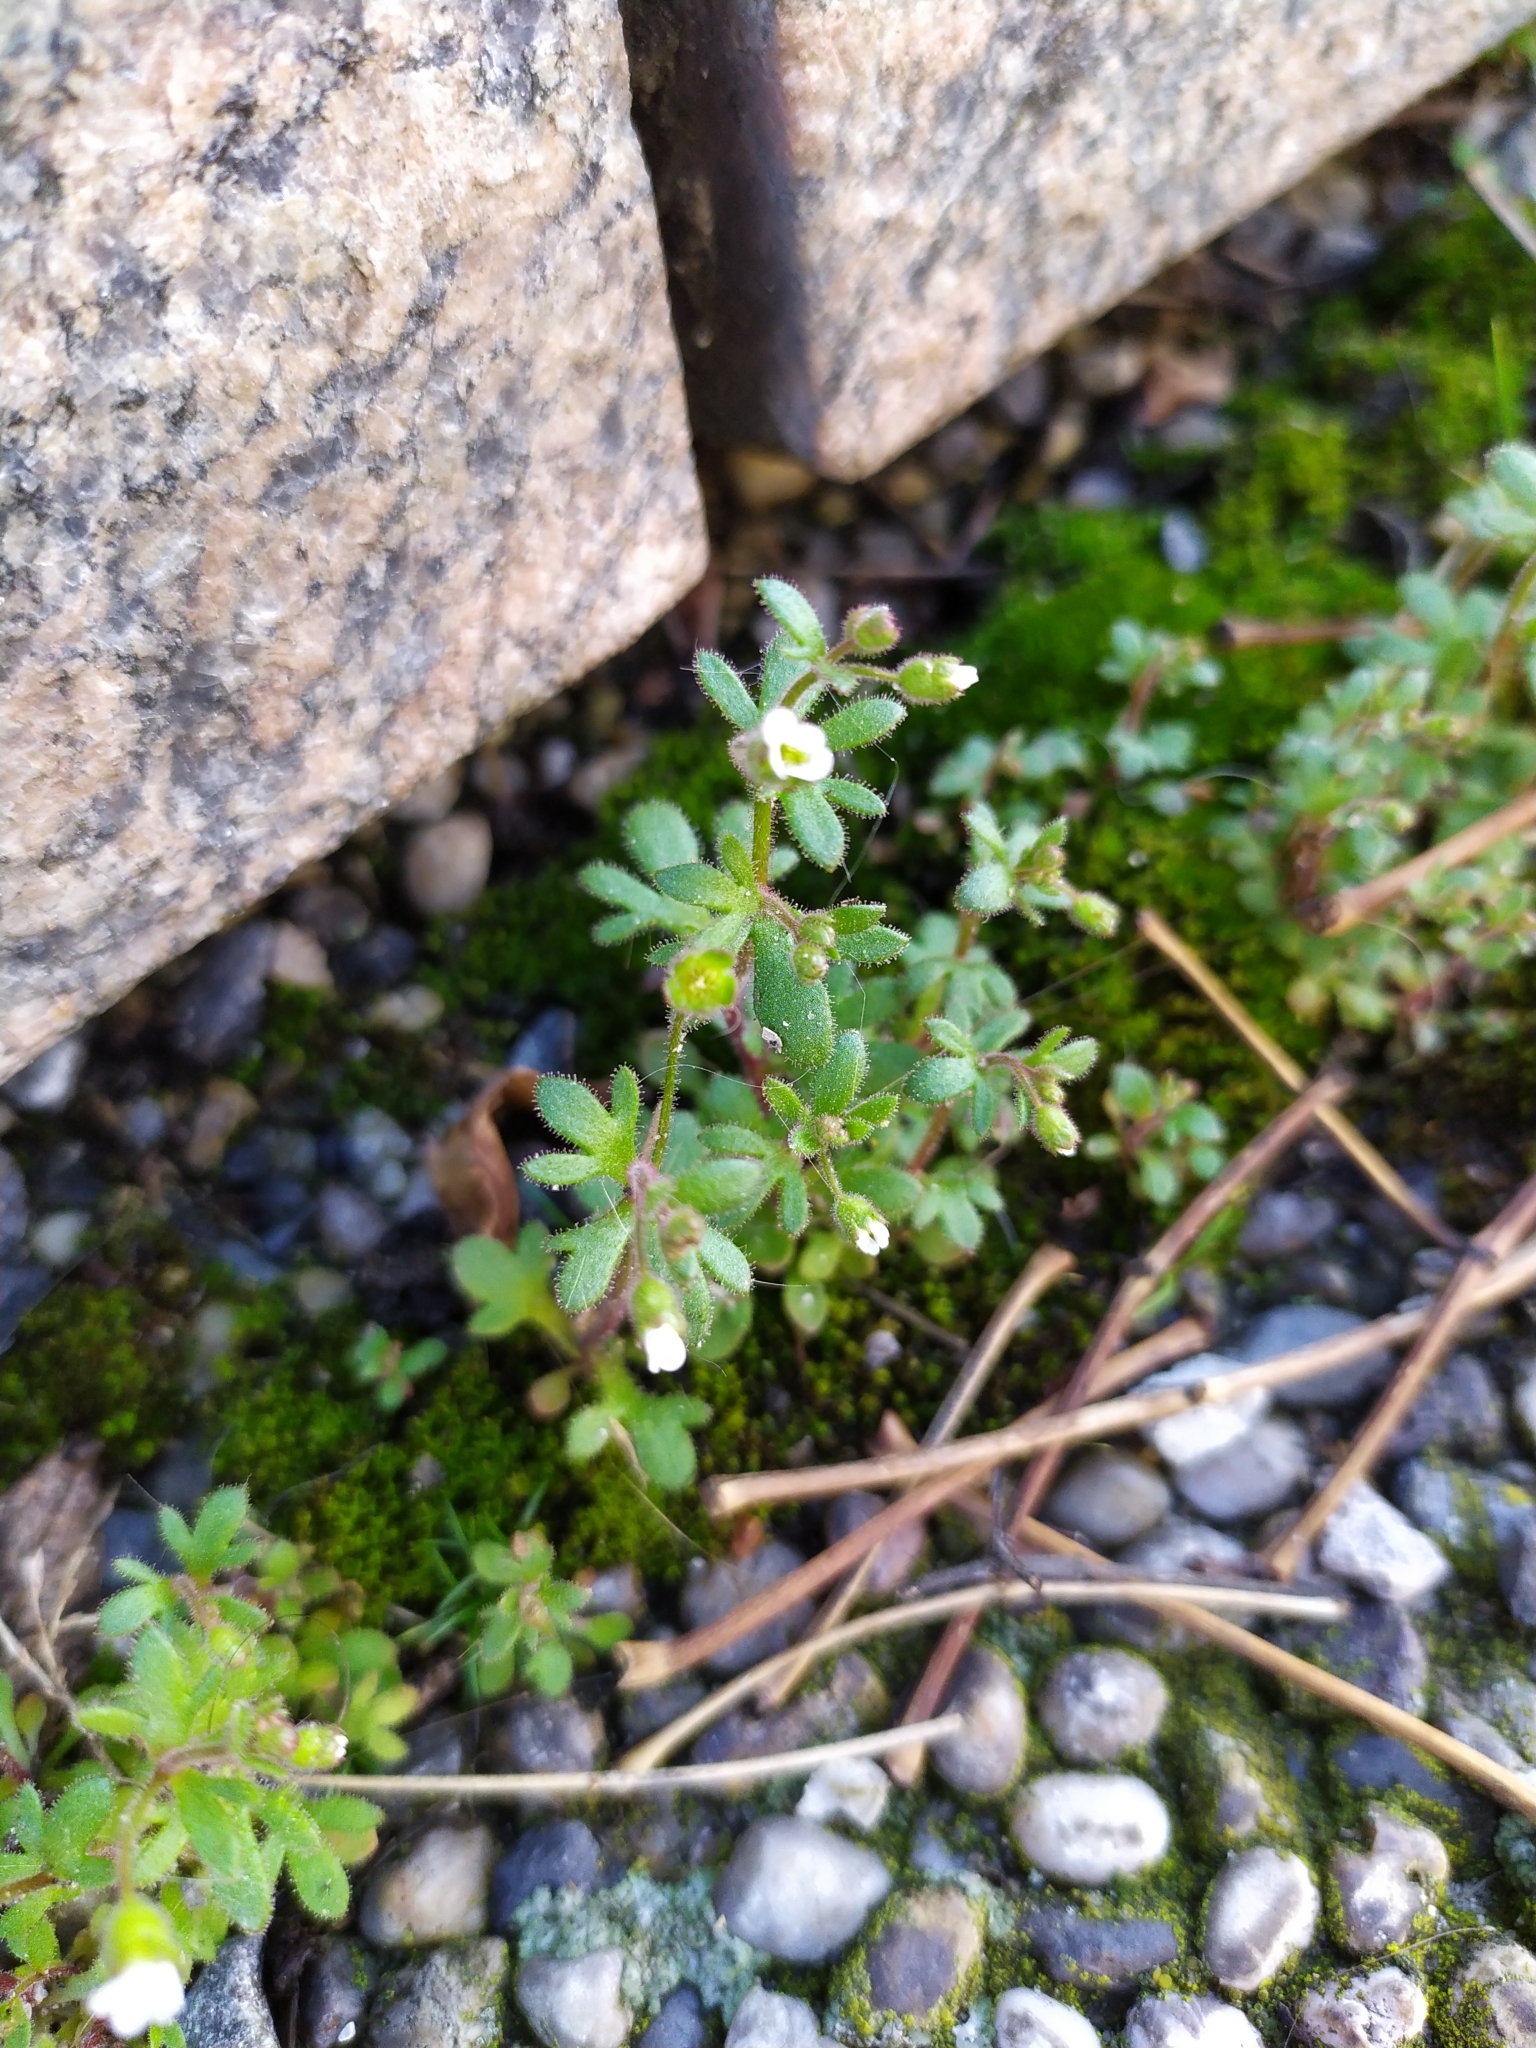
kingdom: Plantae
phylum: Tracheophyta
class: Magnoliopsida
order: Saxifragales
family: Saxifragaceae
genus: Saxifraga
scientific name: Saxifraga tridactylites
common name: Rue-leaved saxifrage
